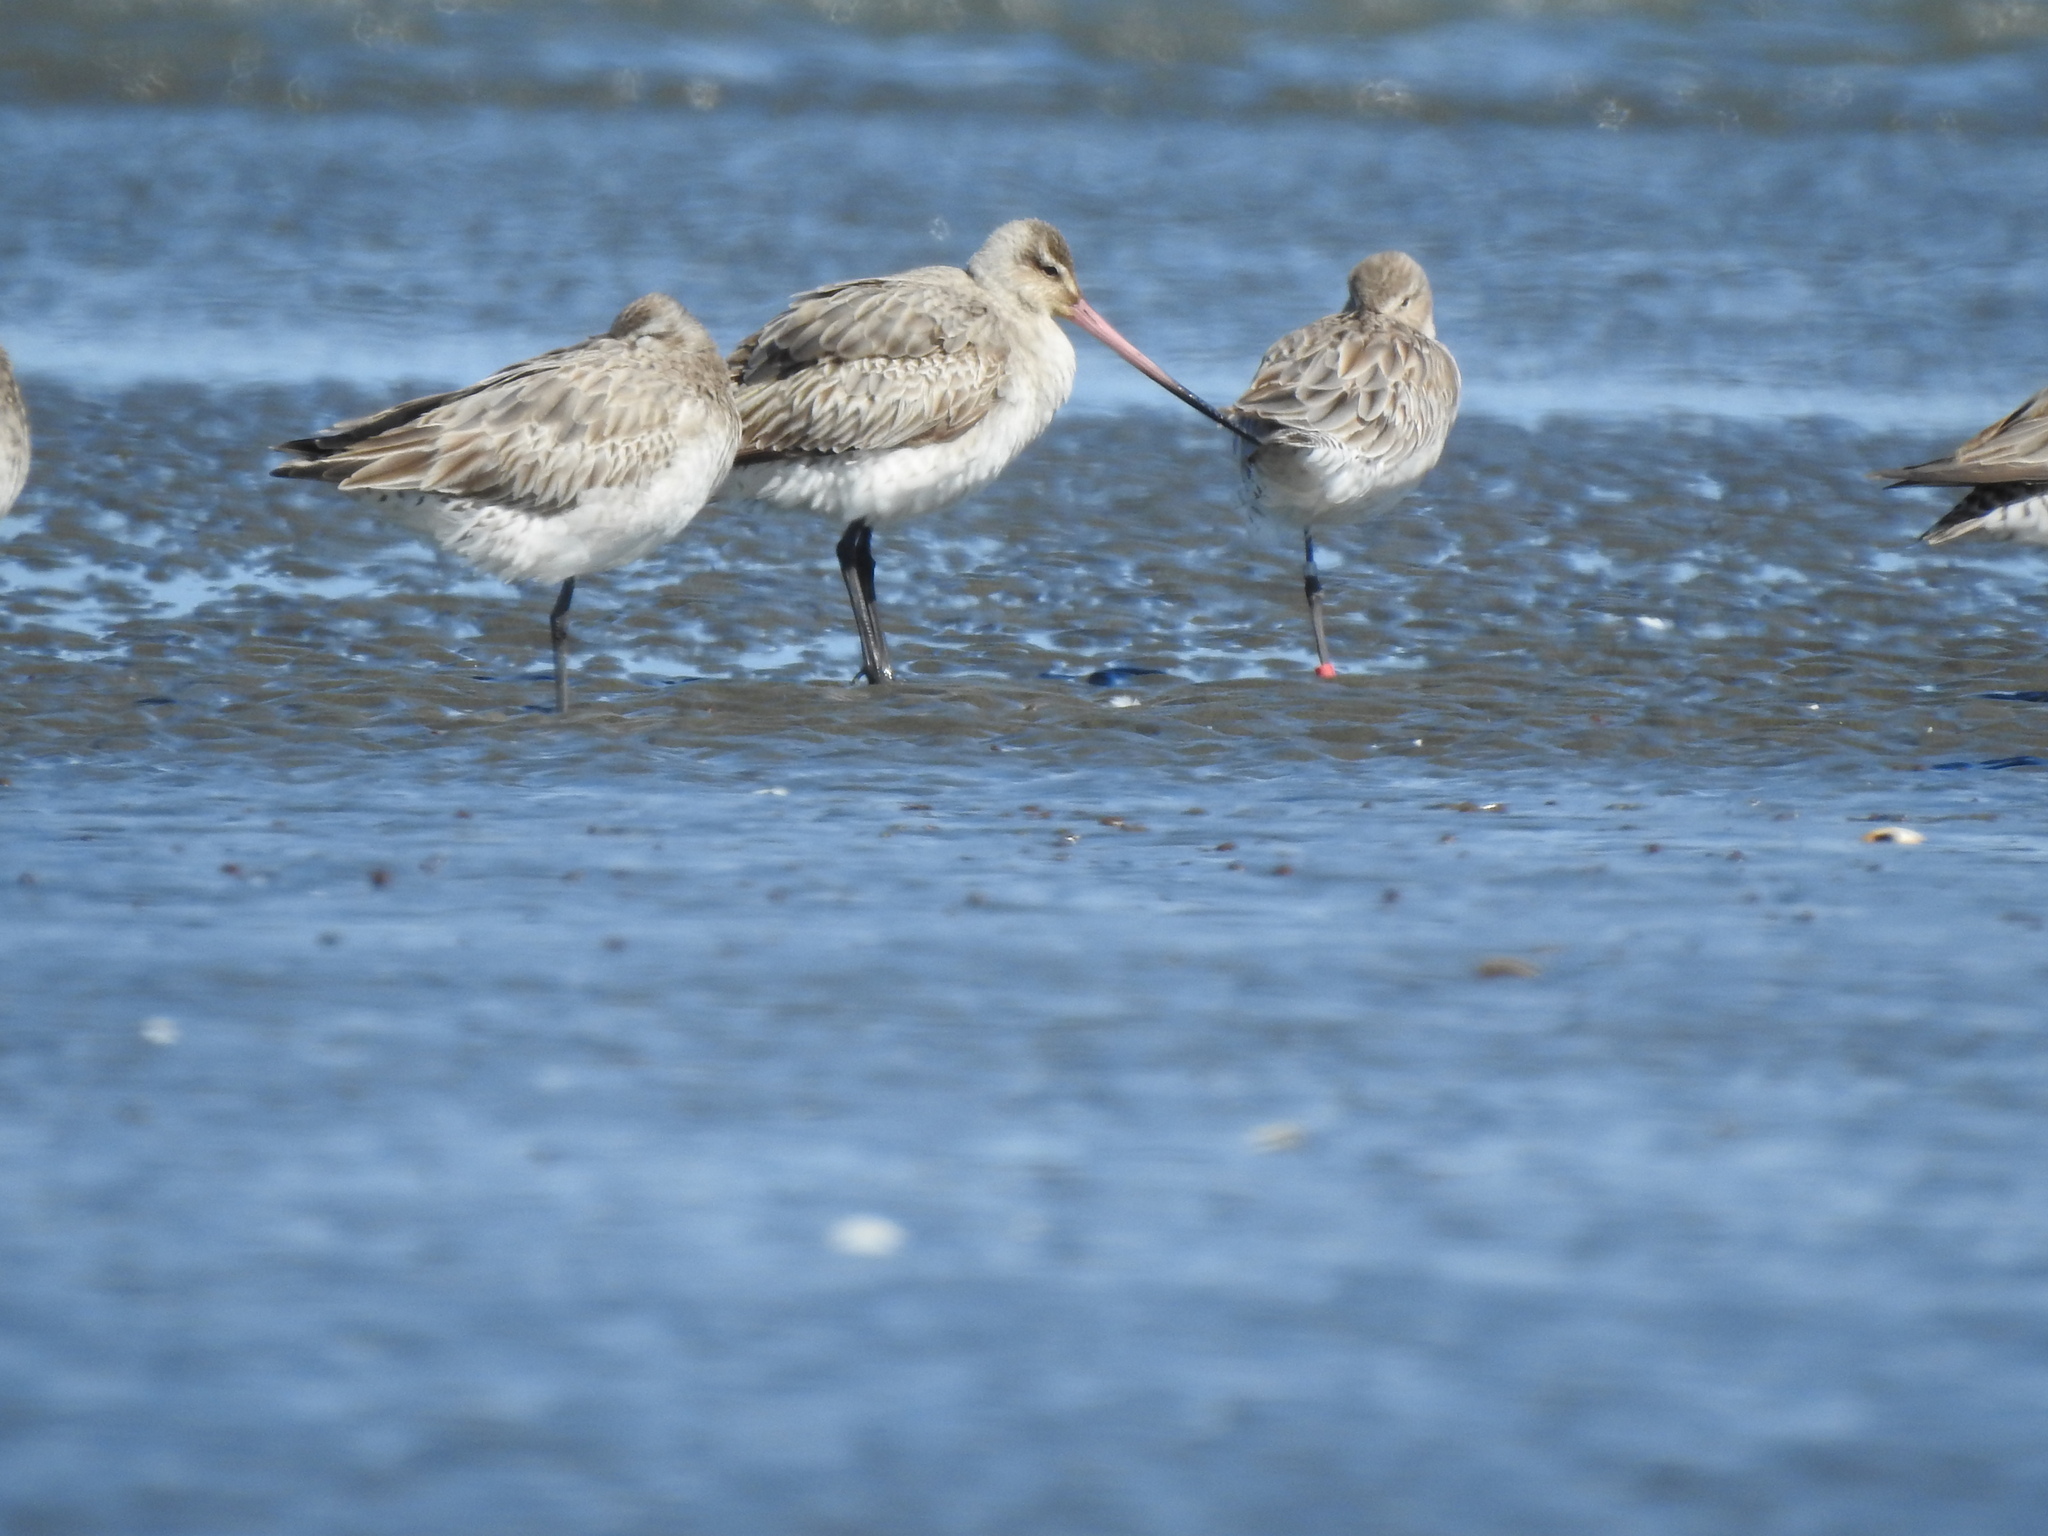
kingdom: Animalia
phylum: Chordata
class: Aves
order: Charadriiformes
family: Scolopacidae
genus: Limosa
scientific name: Limosa lapponica
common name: Bar-tailed godwit
